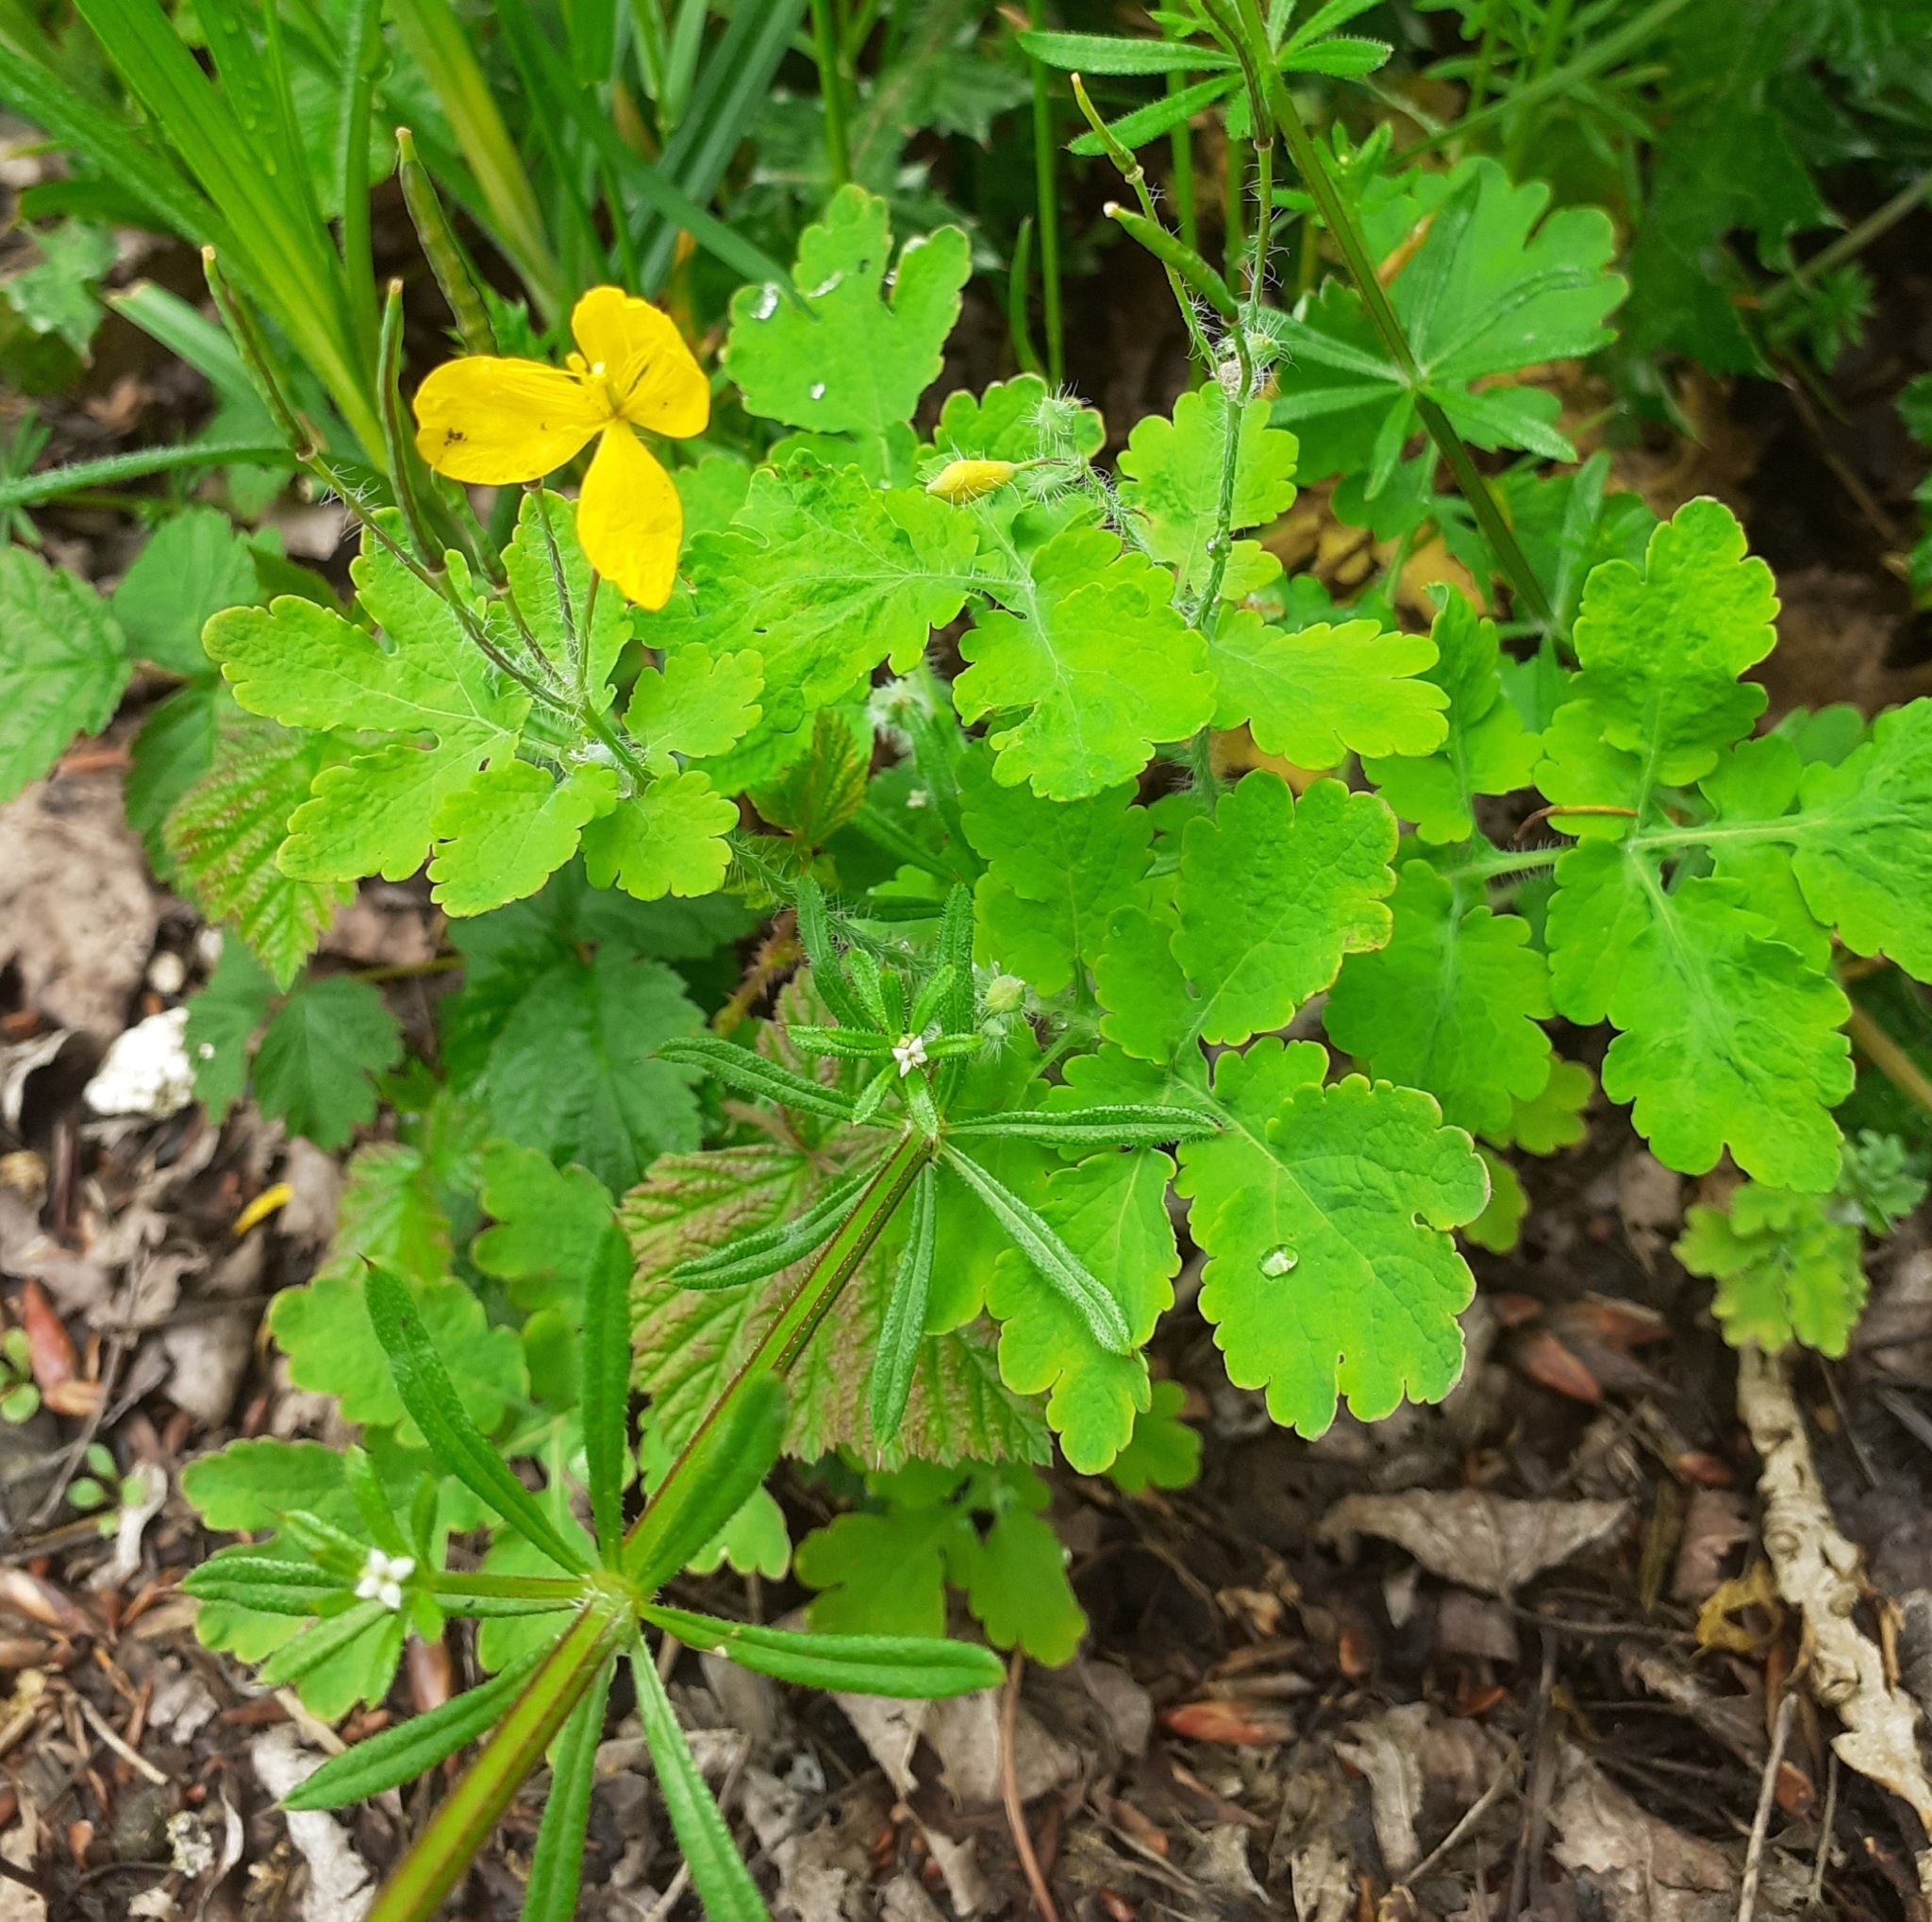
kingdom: Plantae
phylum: Tracheophyta
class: Magnoliopsida
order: Ranunculales
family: Papaveraceae
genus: Chelidonium
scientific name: Chelidonium majus
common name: Greater celandine
